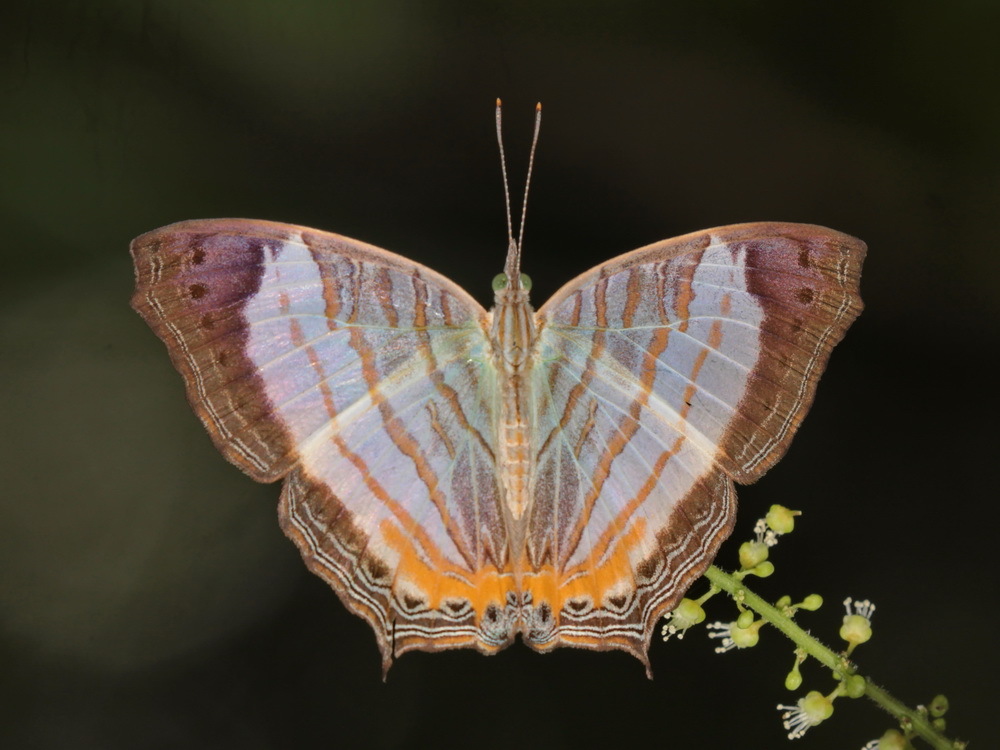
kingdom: Animalia
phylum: Arthropoda
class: Insecta
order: Lepidoptera
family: Nymphalidae
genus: Cyrestis
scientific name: Cyrestis themire
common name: Little mapwing
